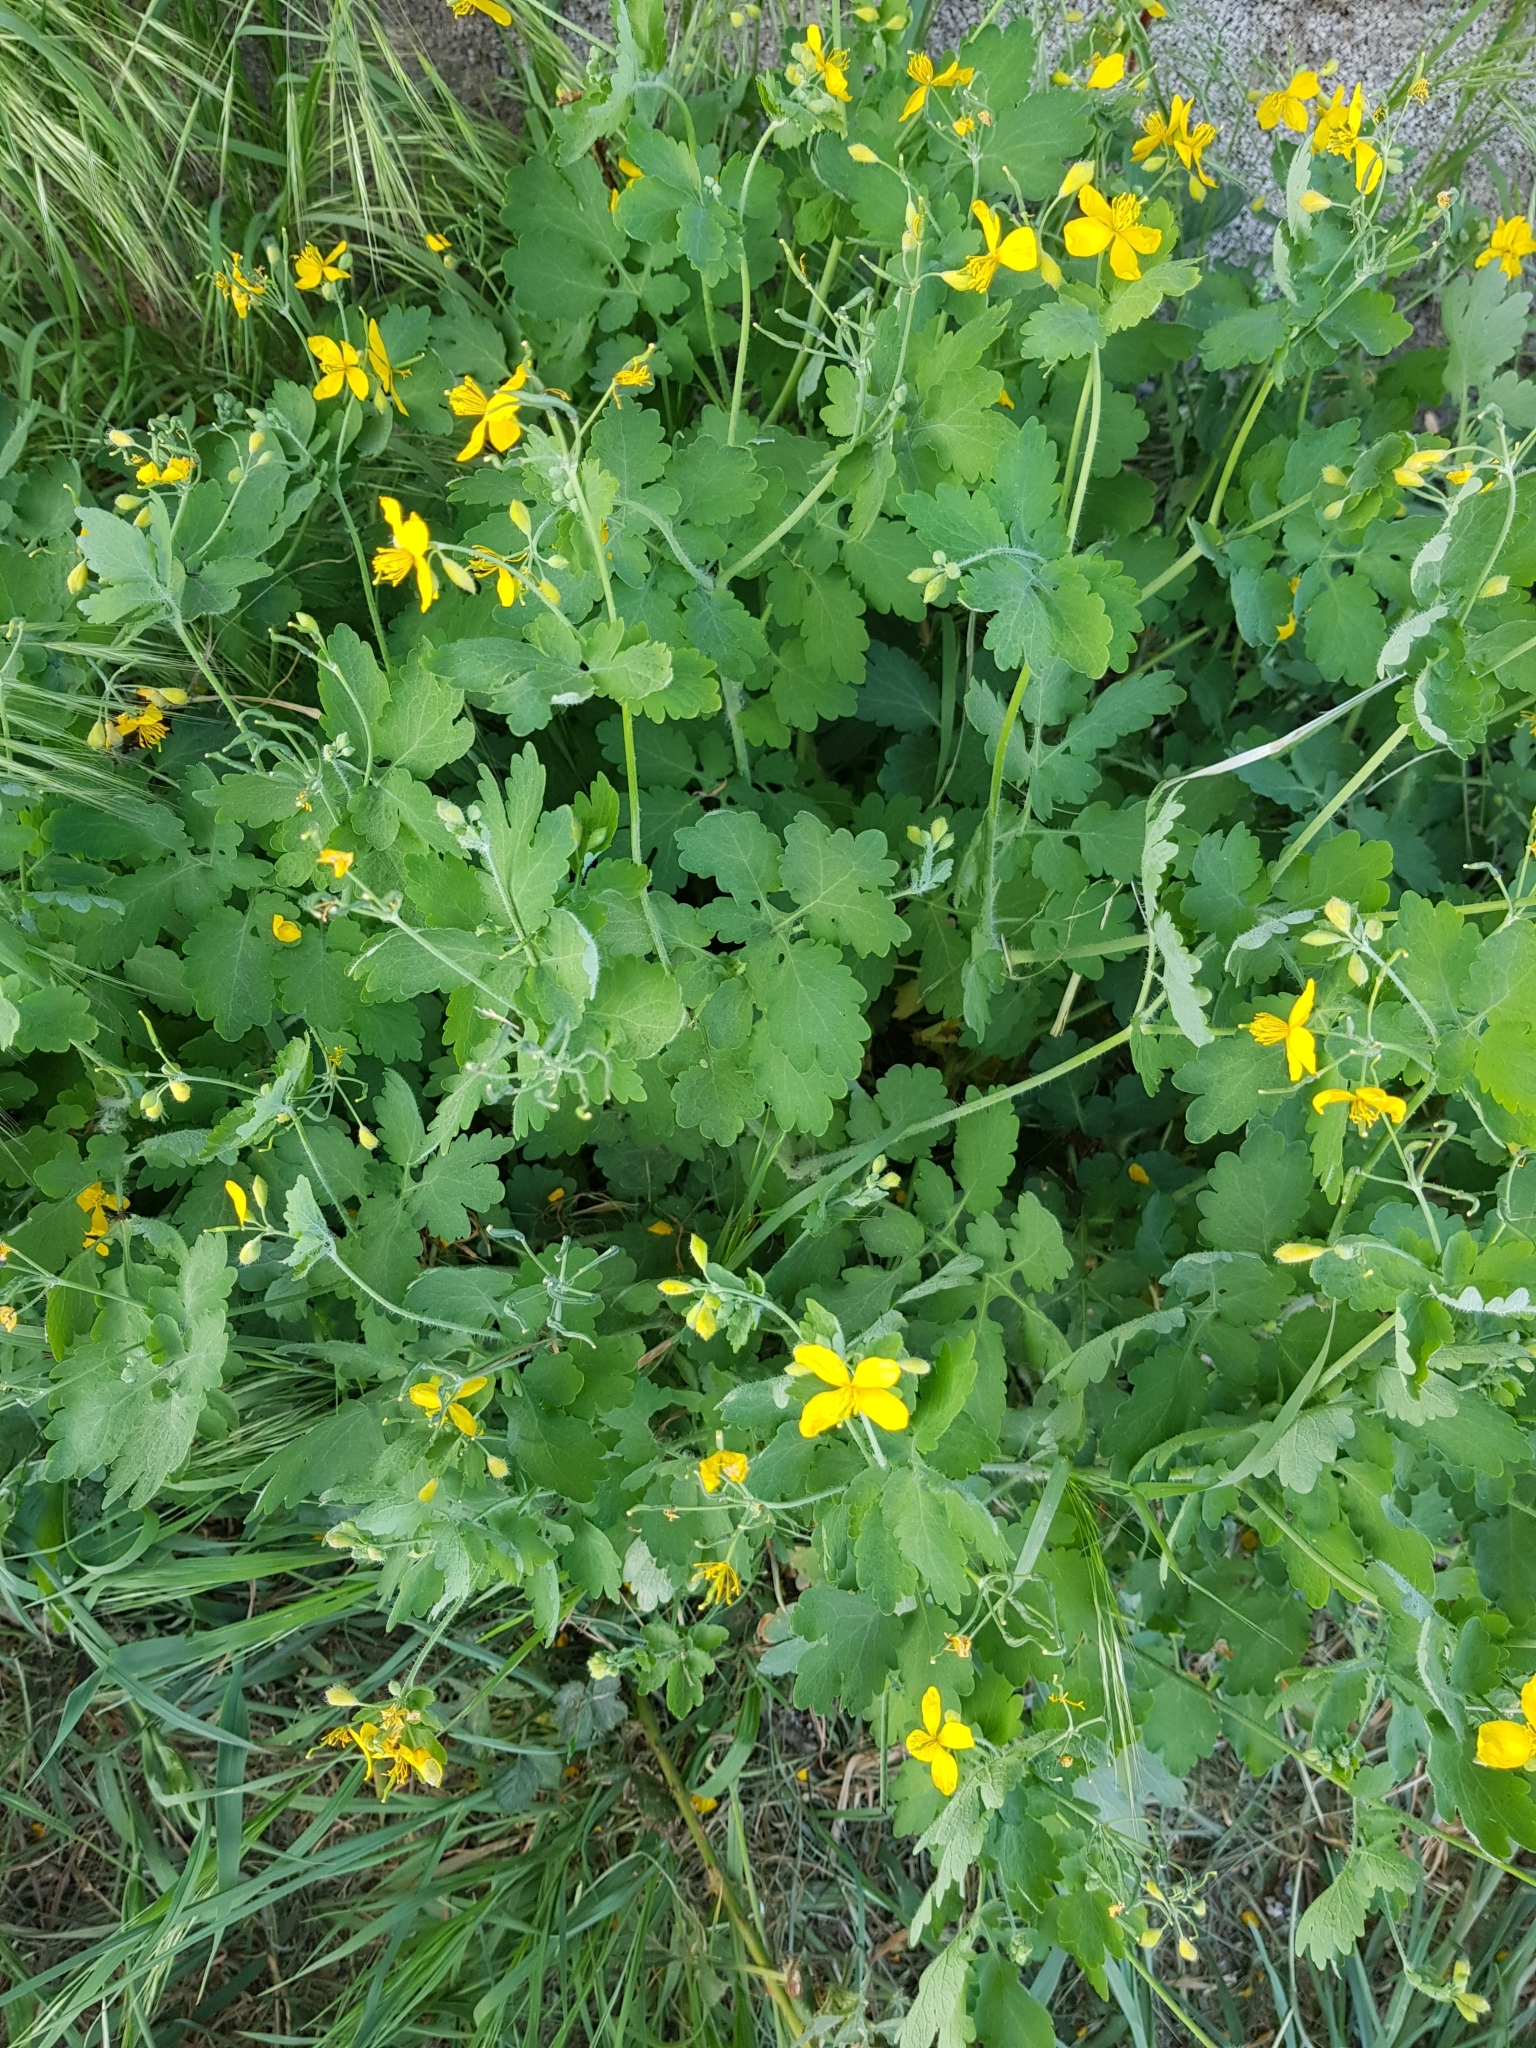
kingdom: Plantae
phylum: Tracheophyta
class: Magnoliopsida
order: Ranunculales
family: Papaveraceae
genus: Chelidonium
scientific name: Chelidonium majus
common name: Greater celandine
